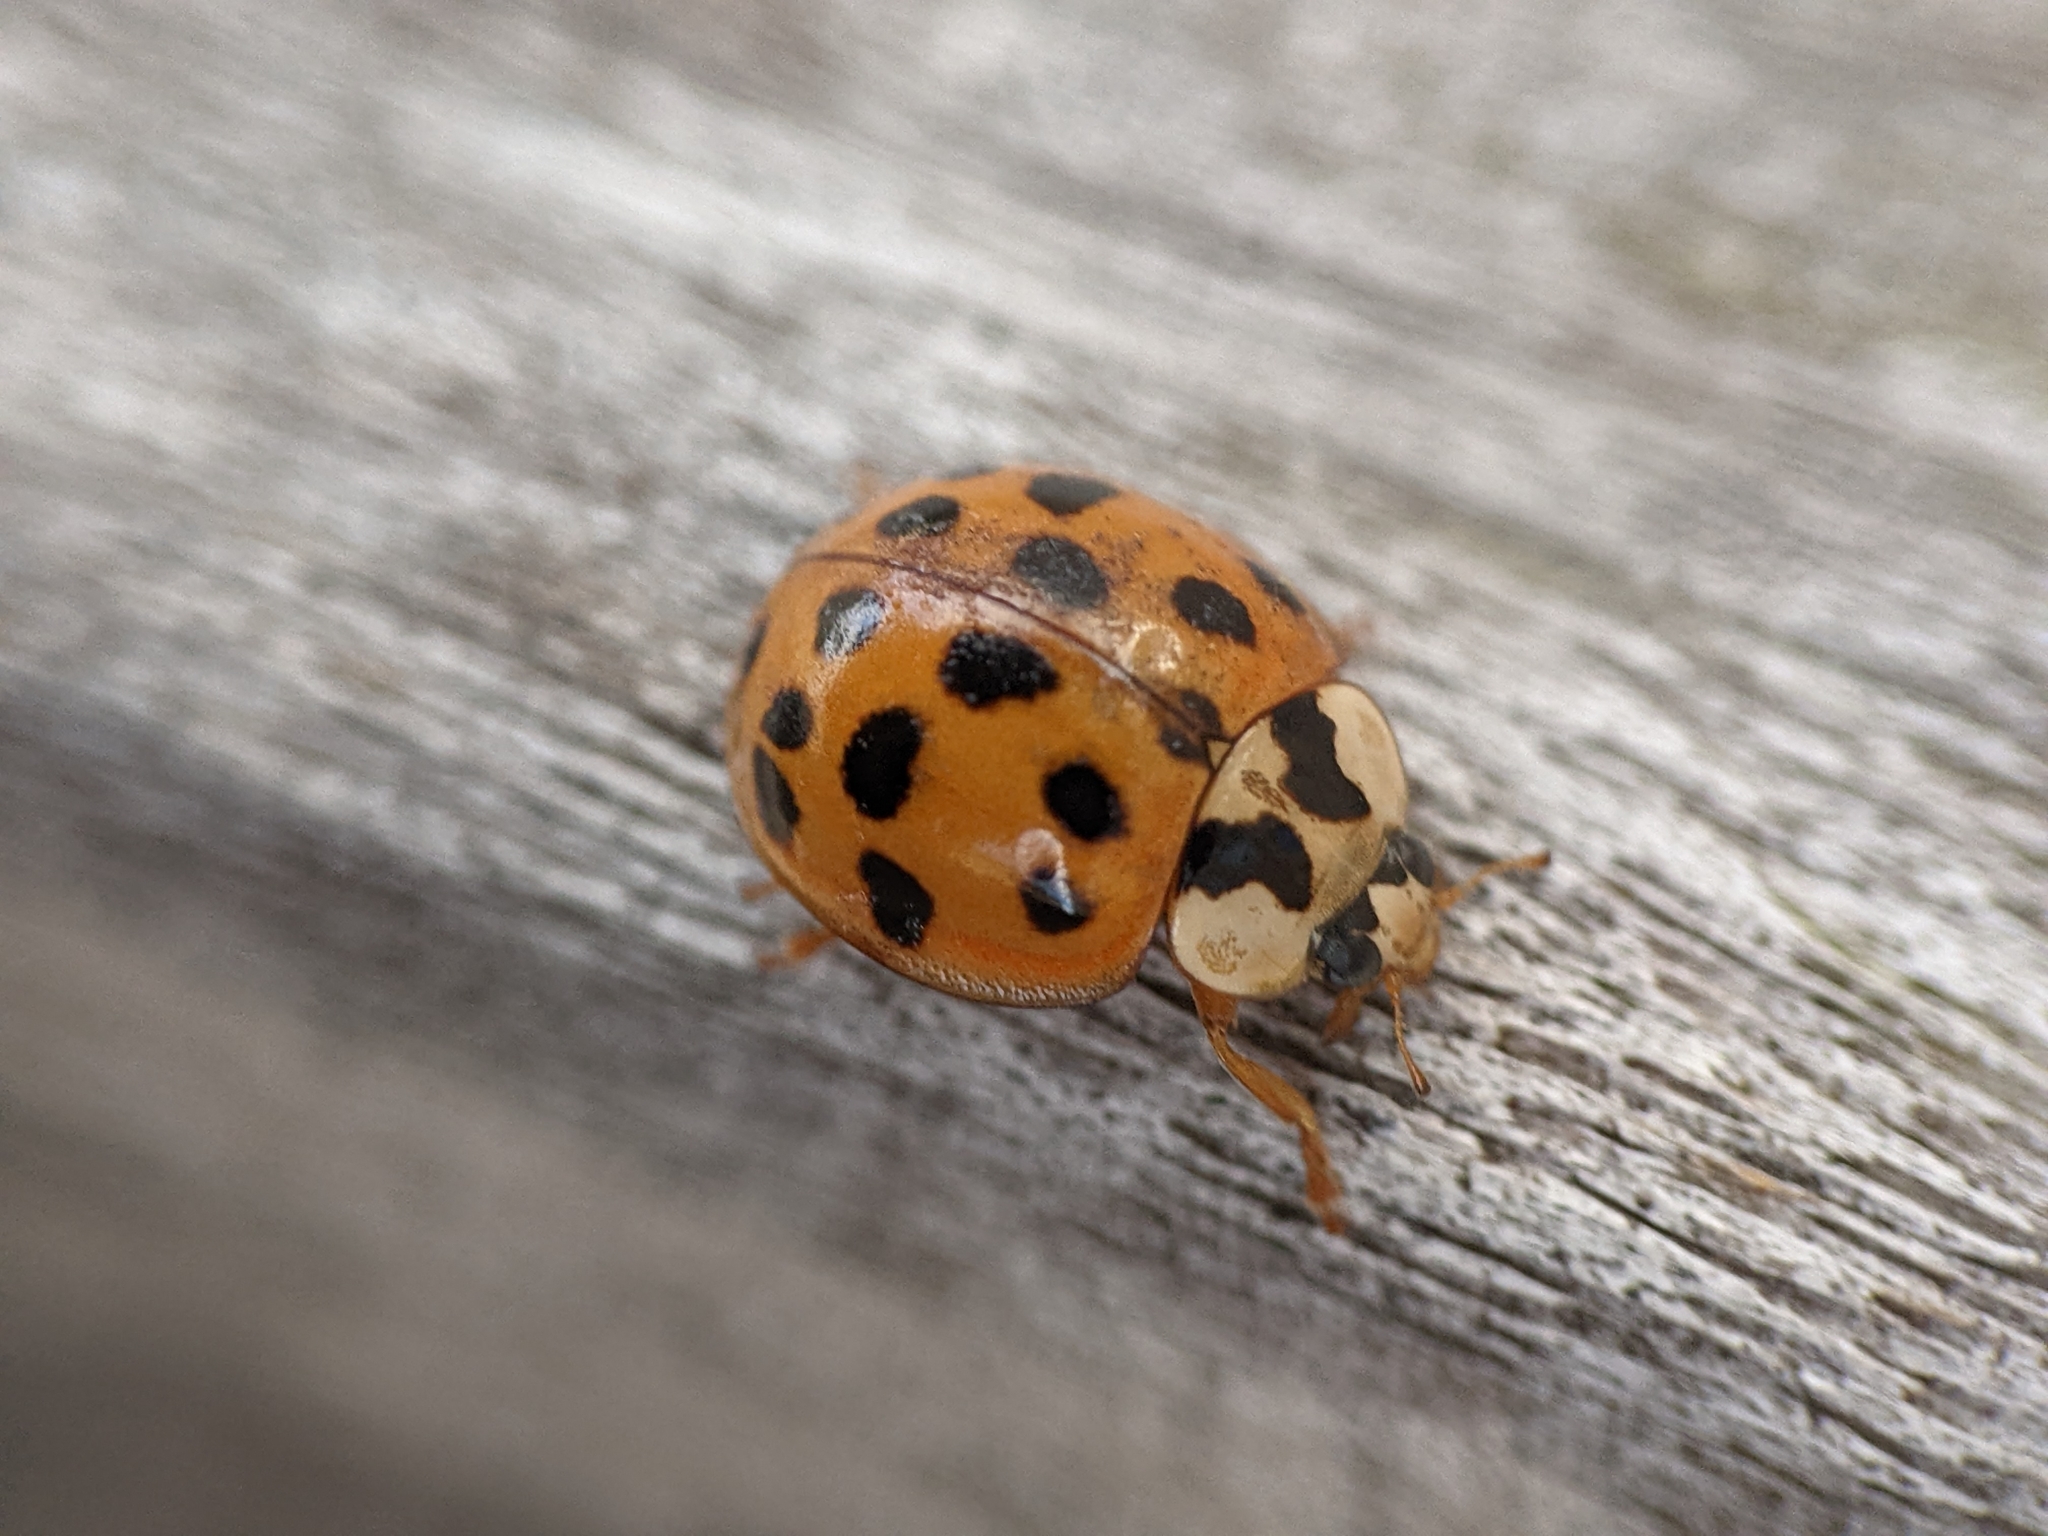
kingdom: Animalia
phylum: Arthropoda
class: Insecta
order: Coleoptera
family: Coccinellidae
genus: Harmonia
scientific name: Harmonia axyridis
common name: Harlequin ladybird
